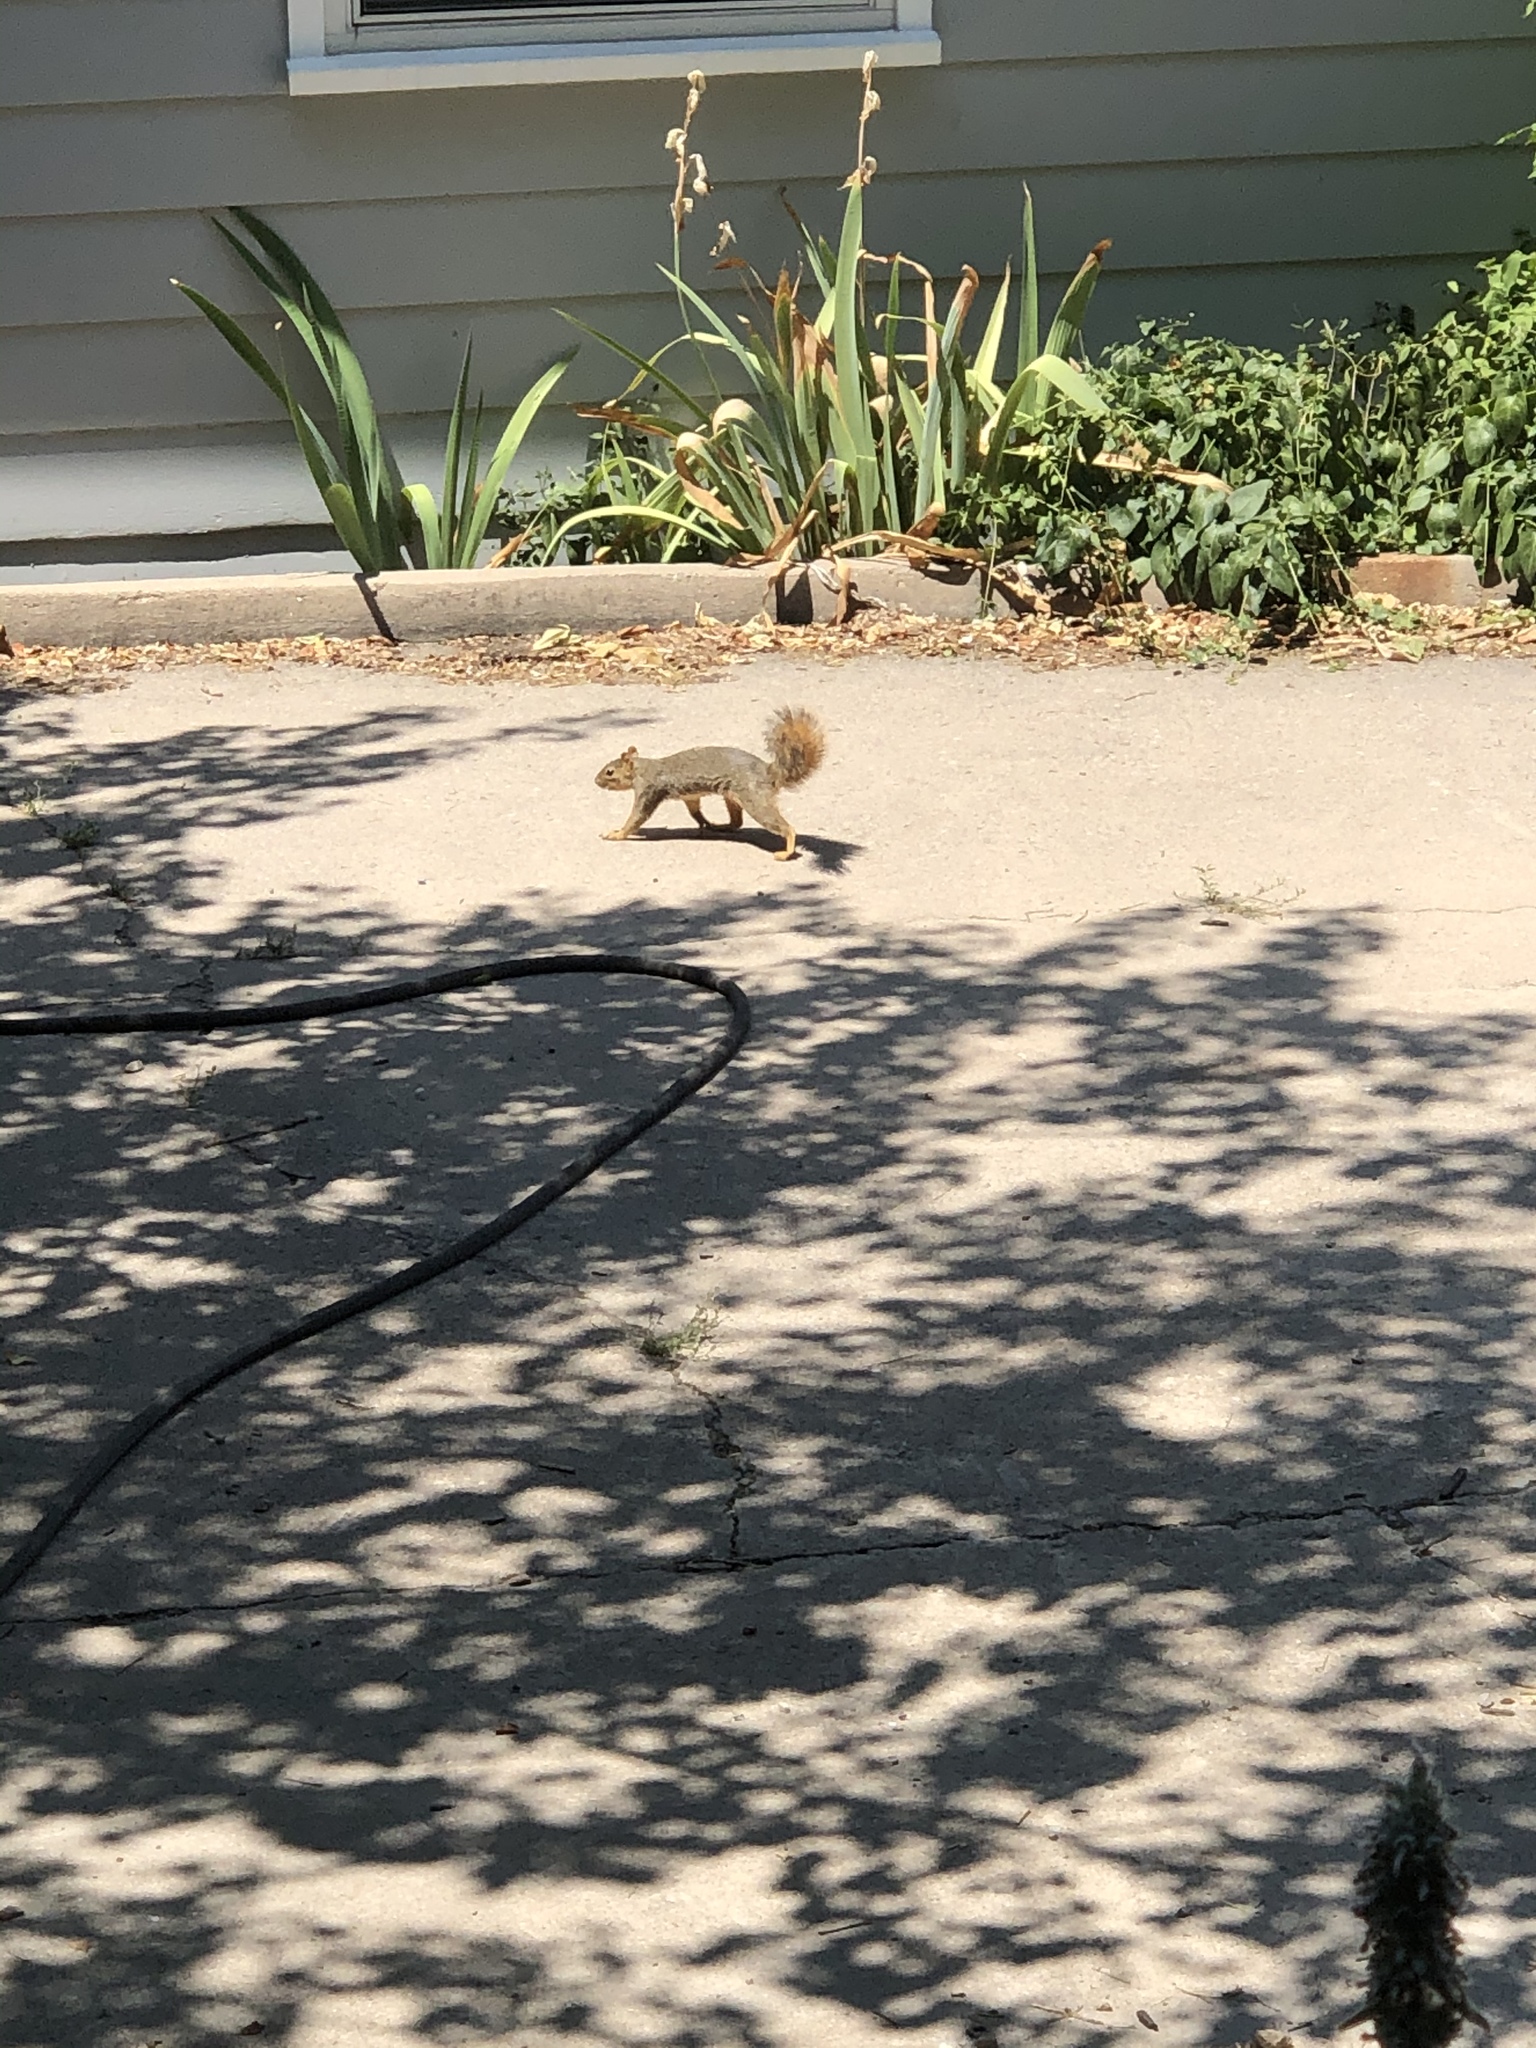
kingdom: Animalia
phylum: Chordata
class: Mammalia
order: Rodentia
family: Sciuridae
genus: Sciurus
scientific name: Sciurus niger
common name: Fox squirrel
